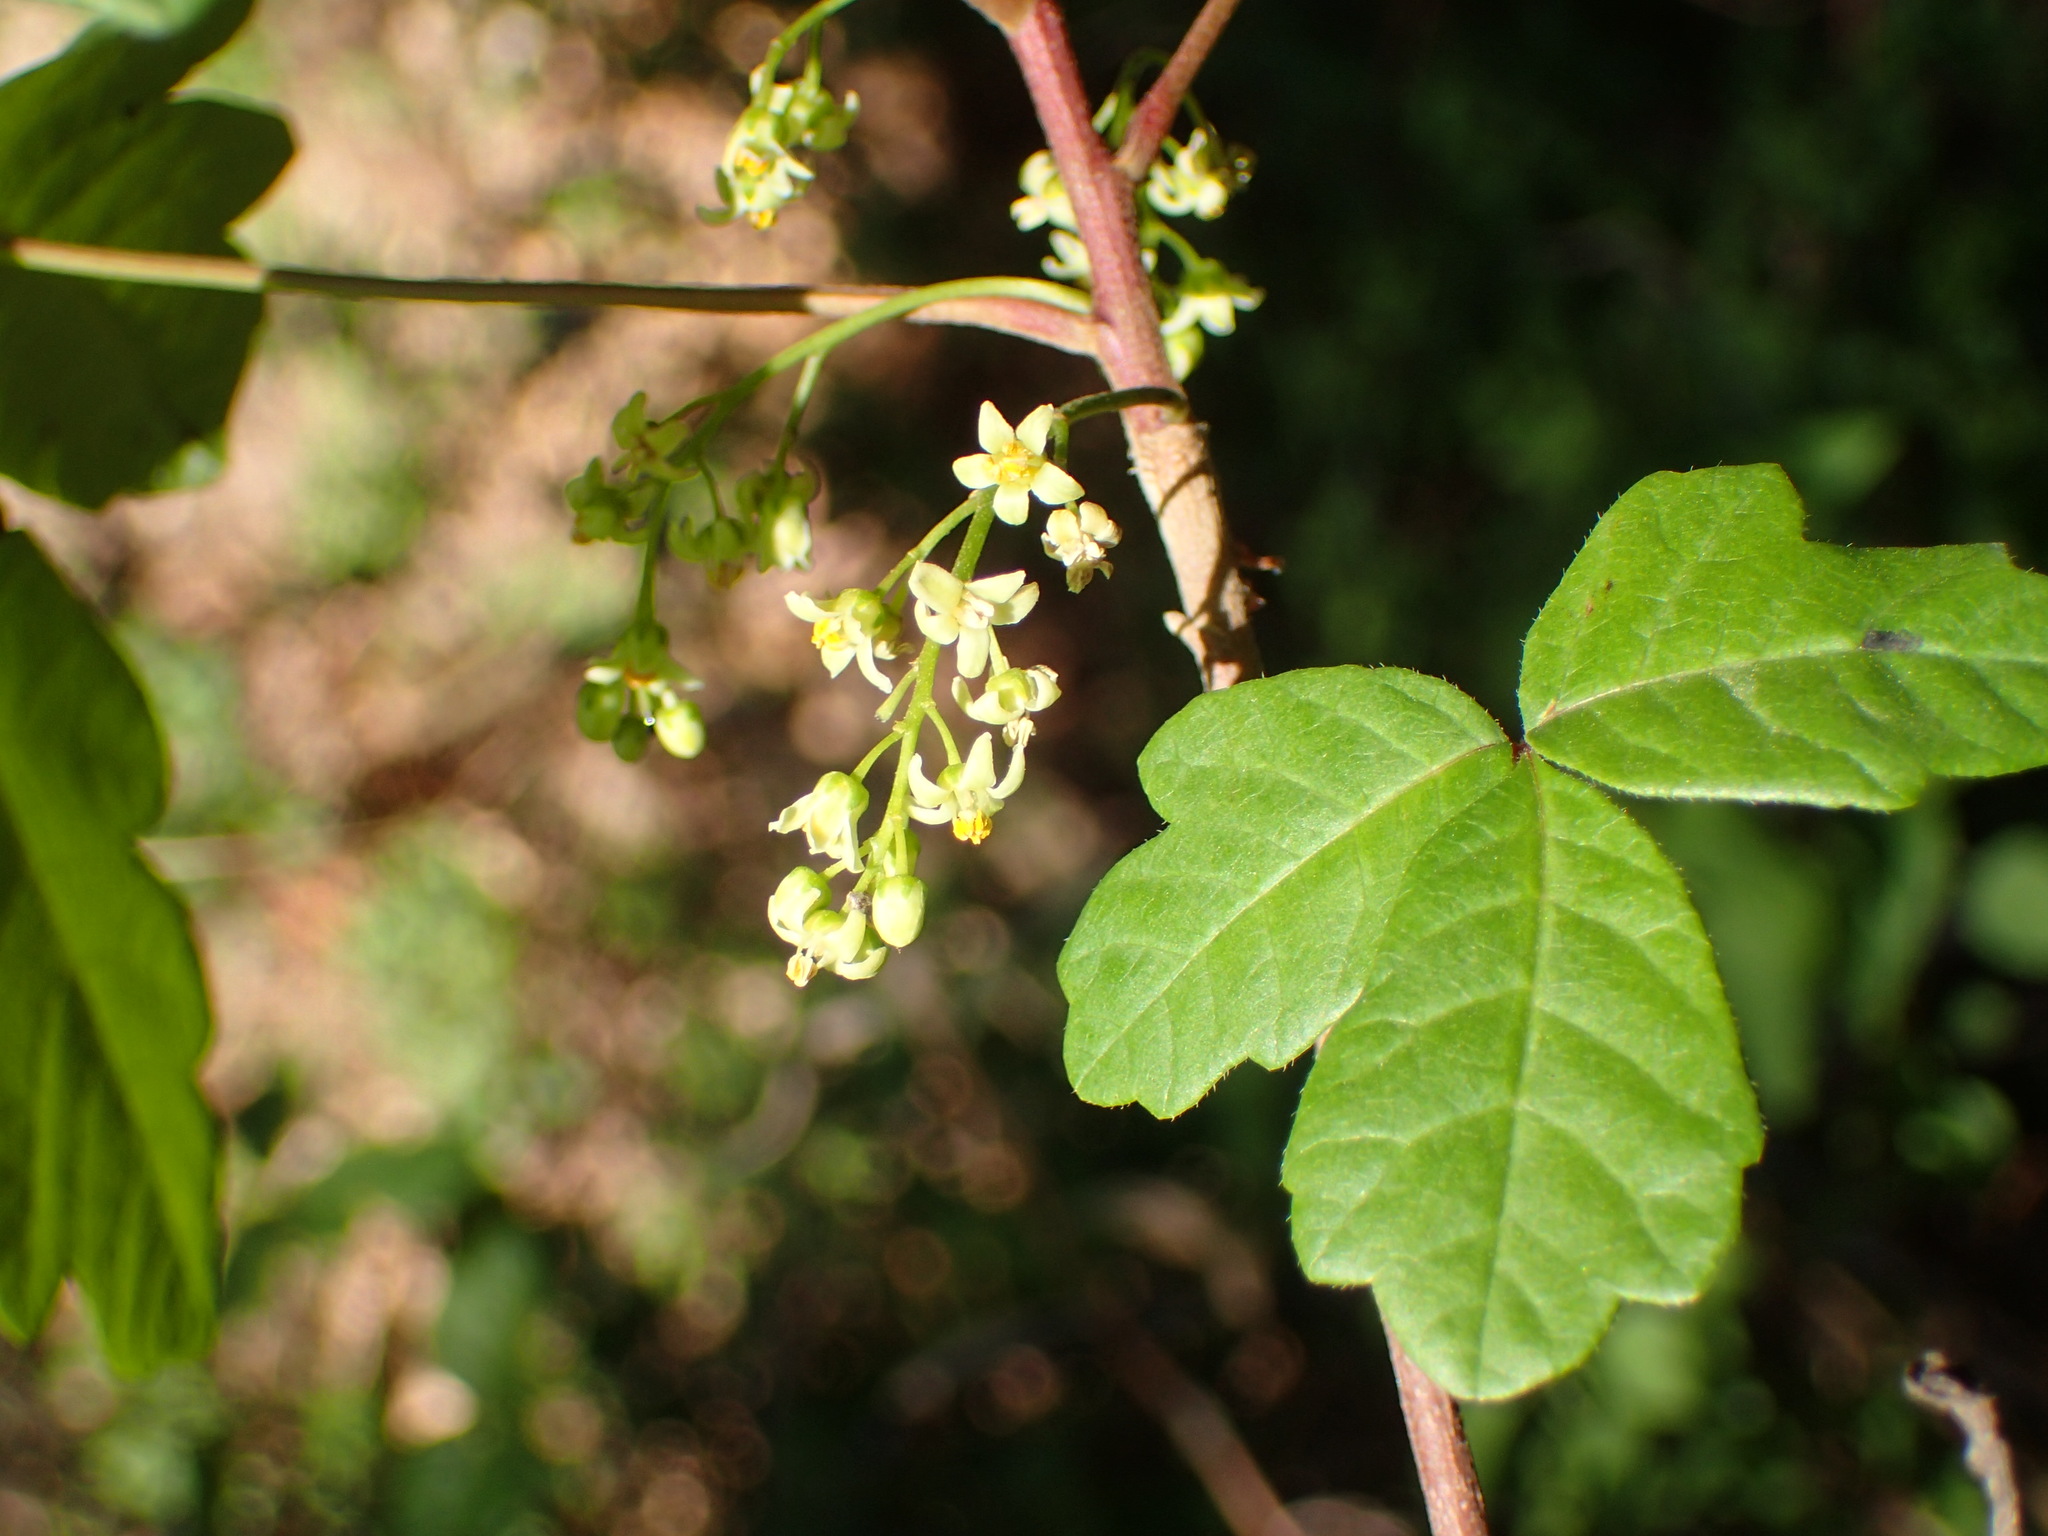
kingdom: Plantae
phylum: Tracheophyta
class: Magnoliopsida
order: Sapindales
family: Anacardiaceae
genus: Toxicodendron
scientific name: Toxicodendron diversilobum
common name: Pacific poison-oak
